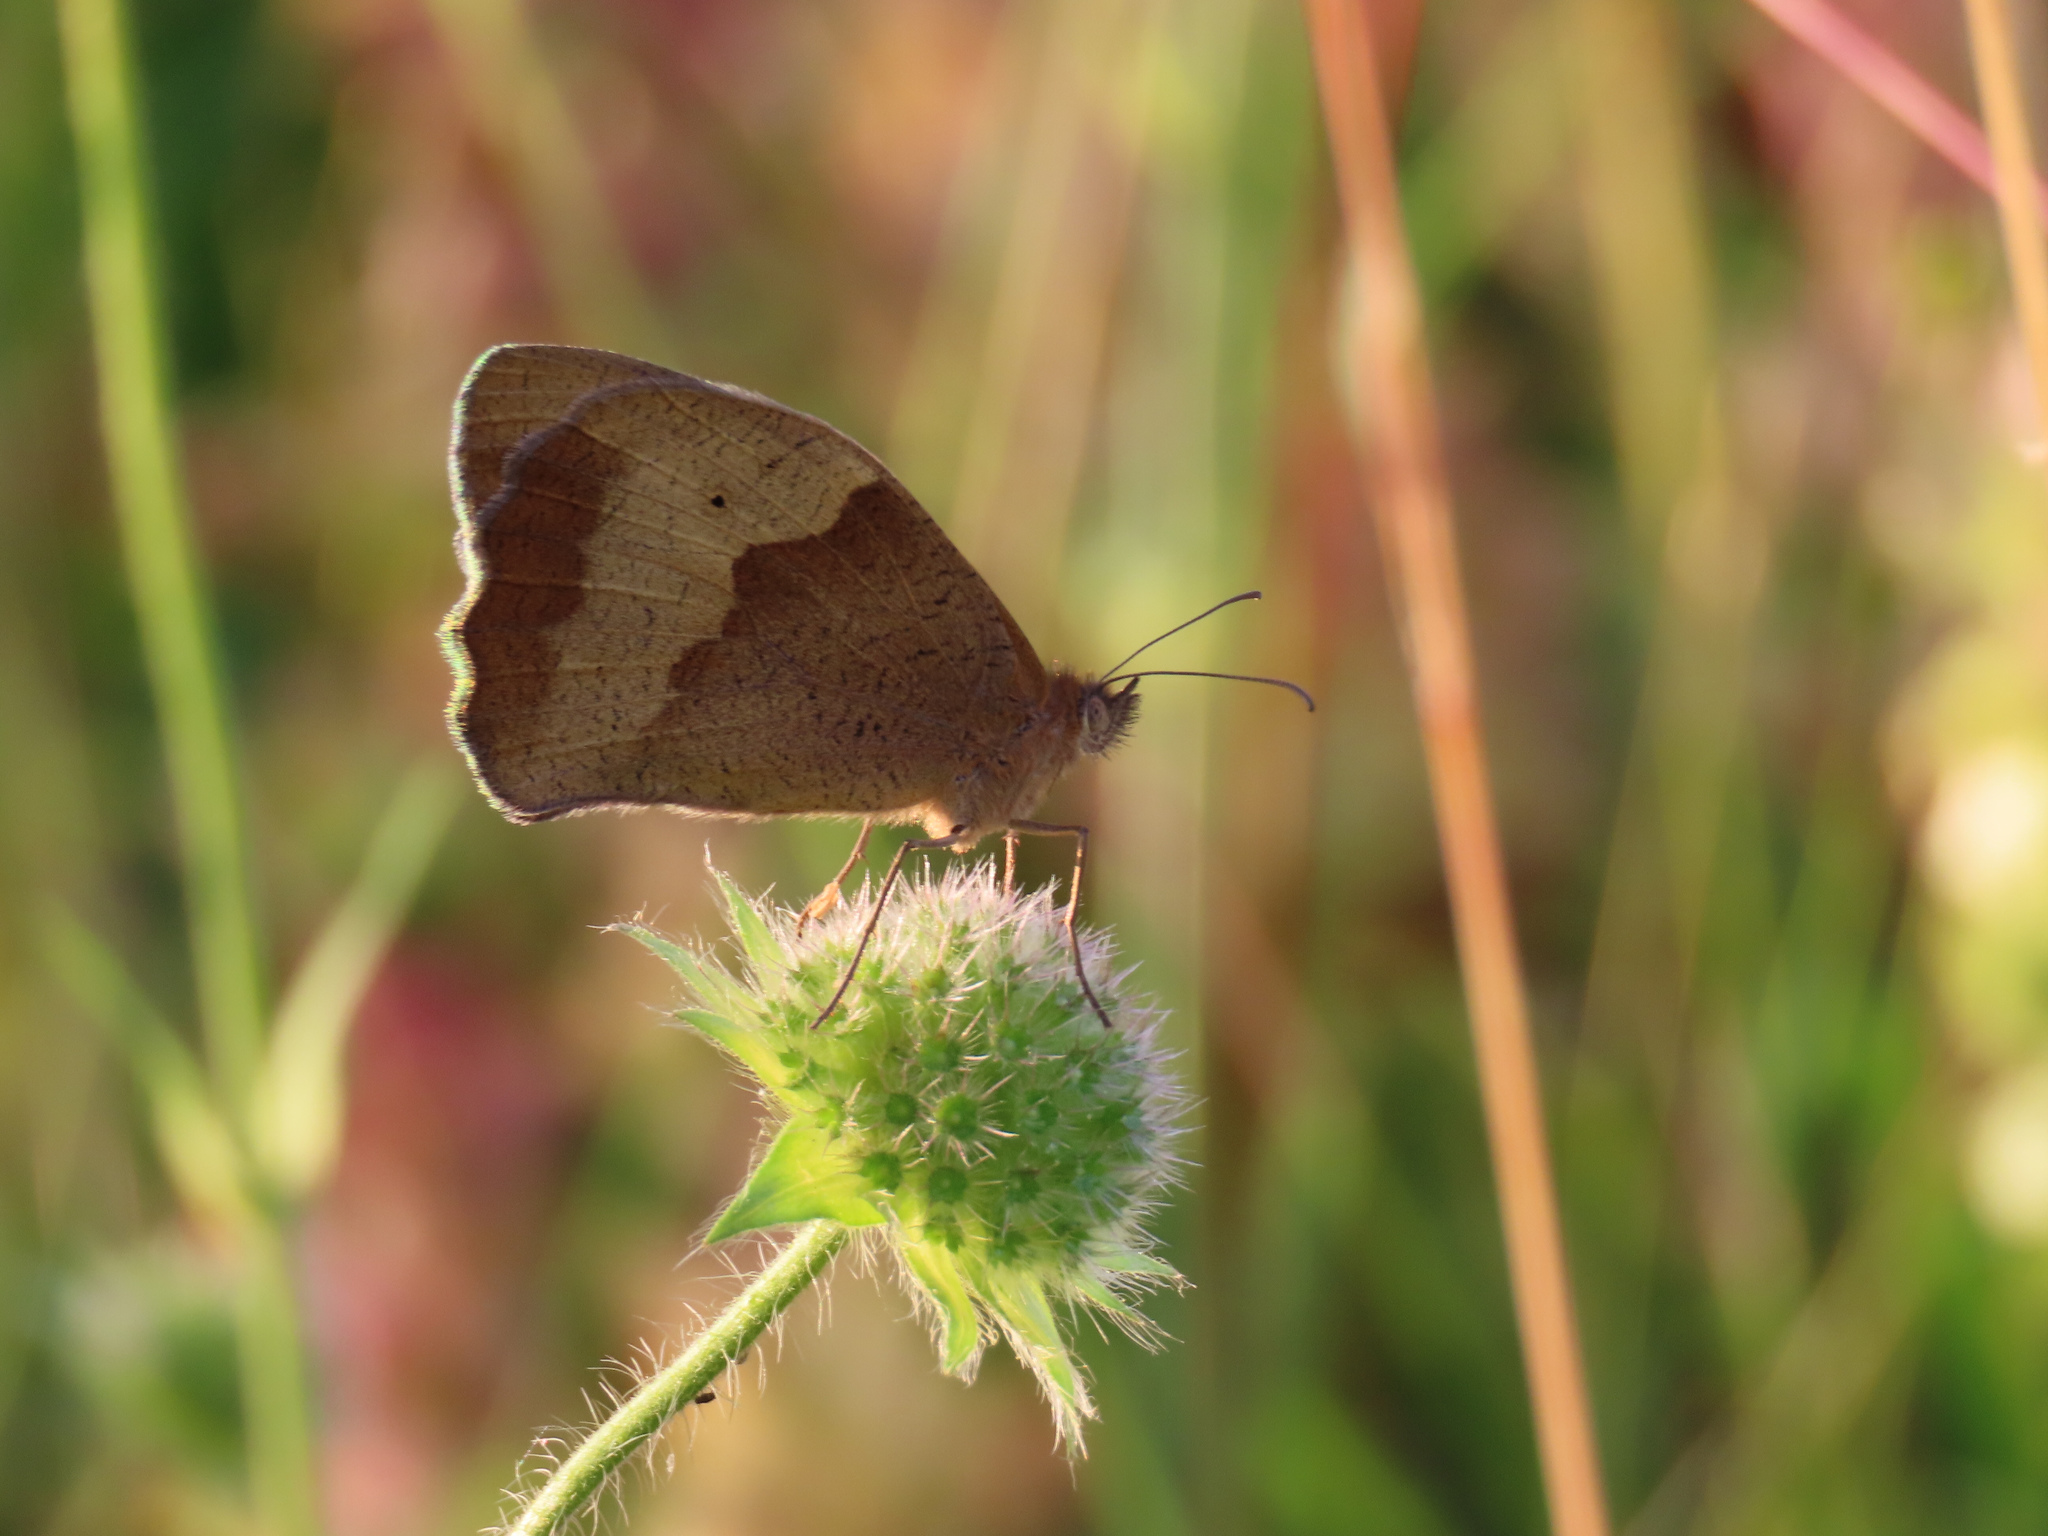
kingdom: Animalia
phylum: Arthropoda
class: Insecta
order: Lepidoptera
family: Nymphalidae
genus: Maniola
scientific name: Maniola jurtina
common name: Meadow brown
